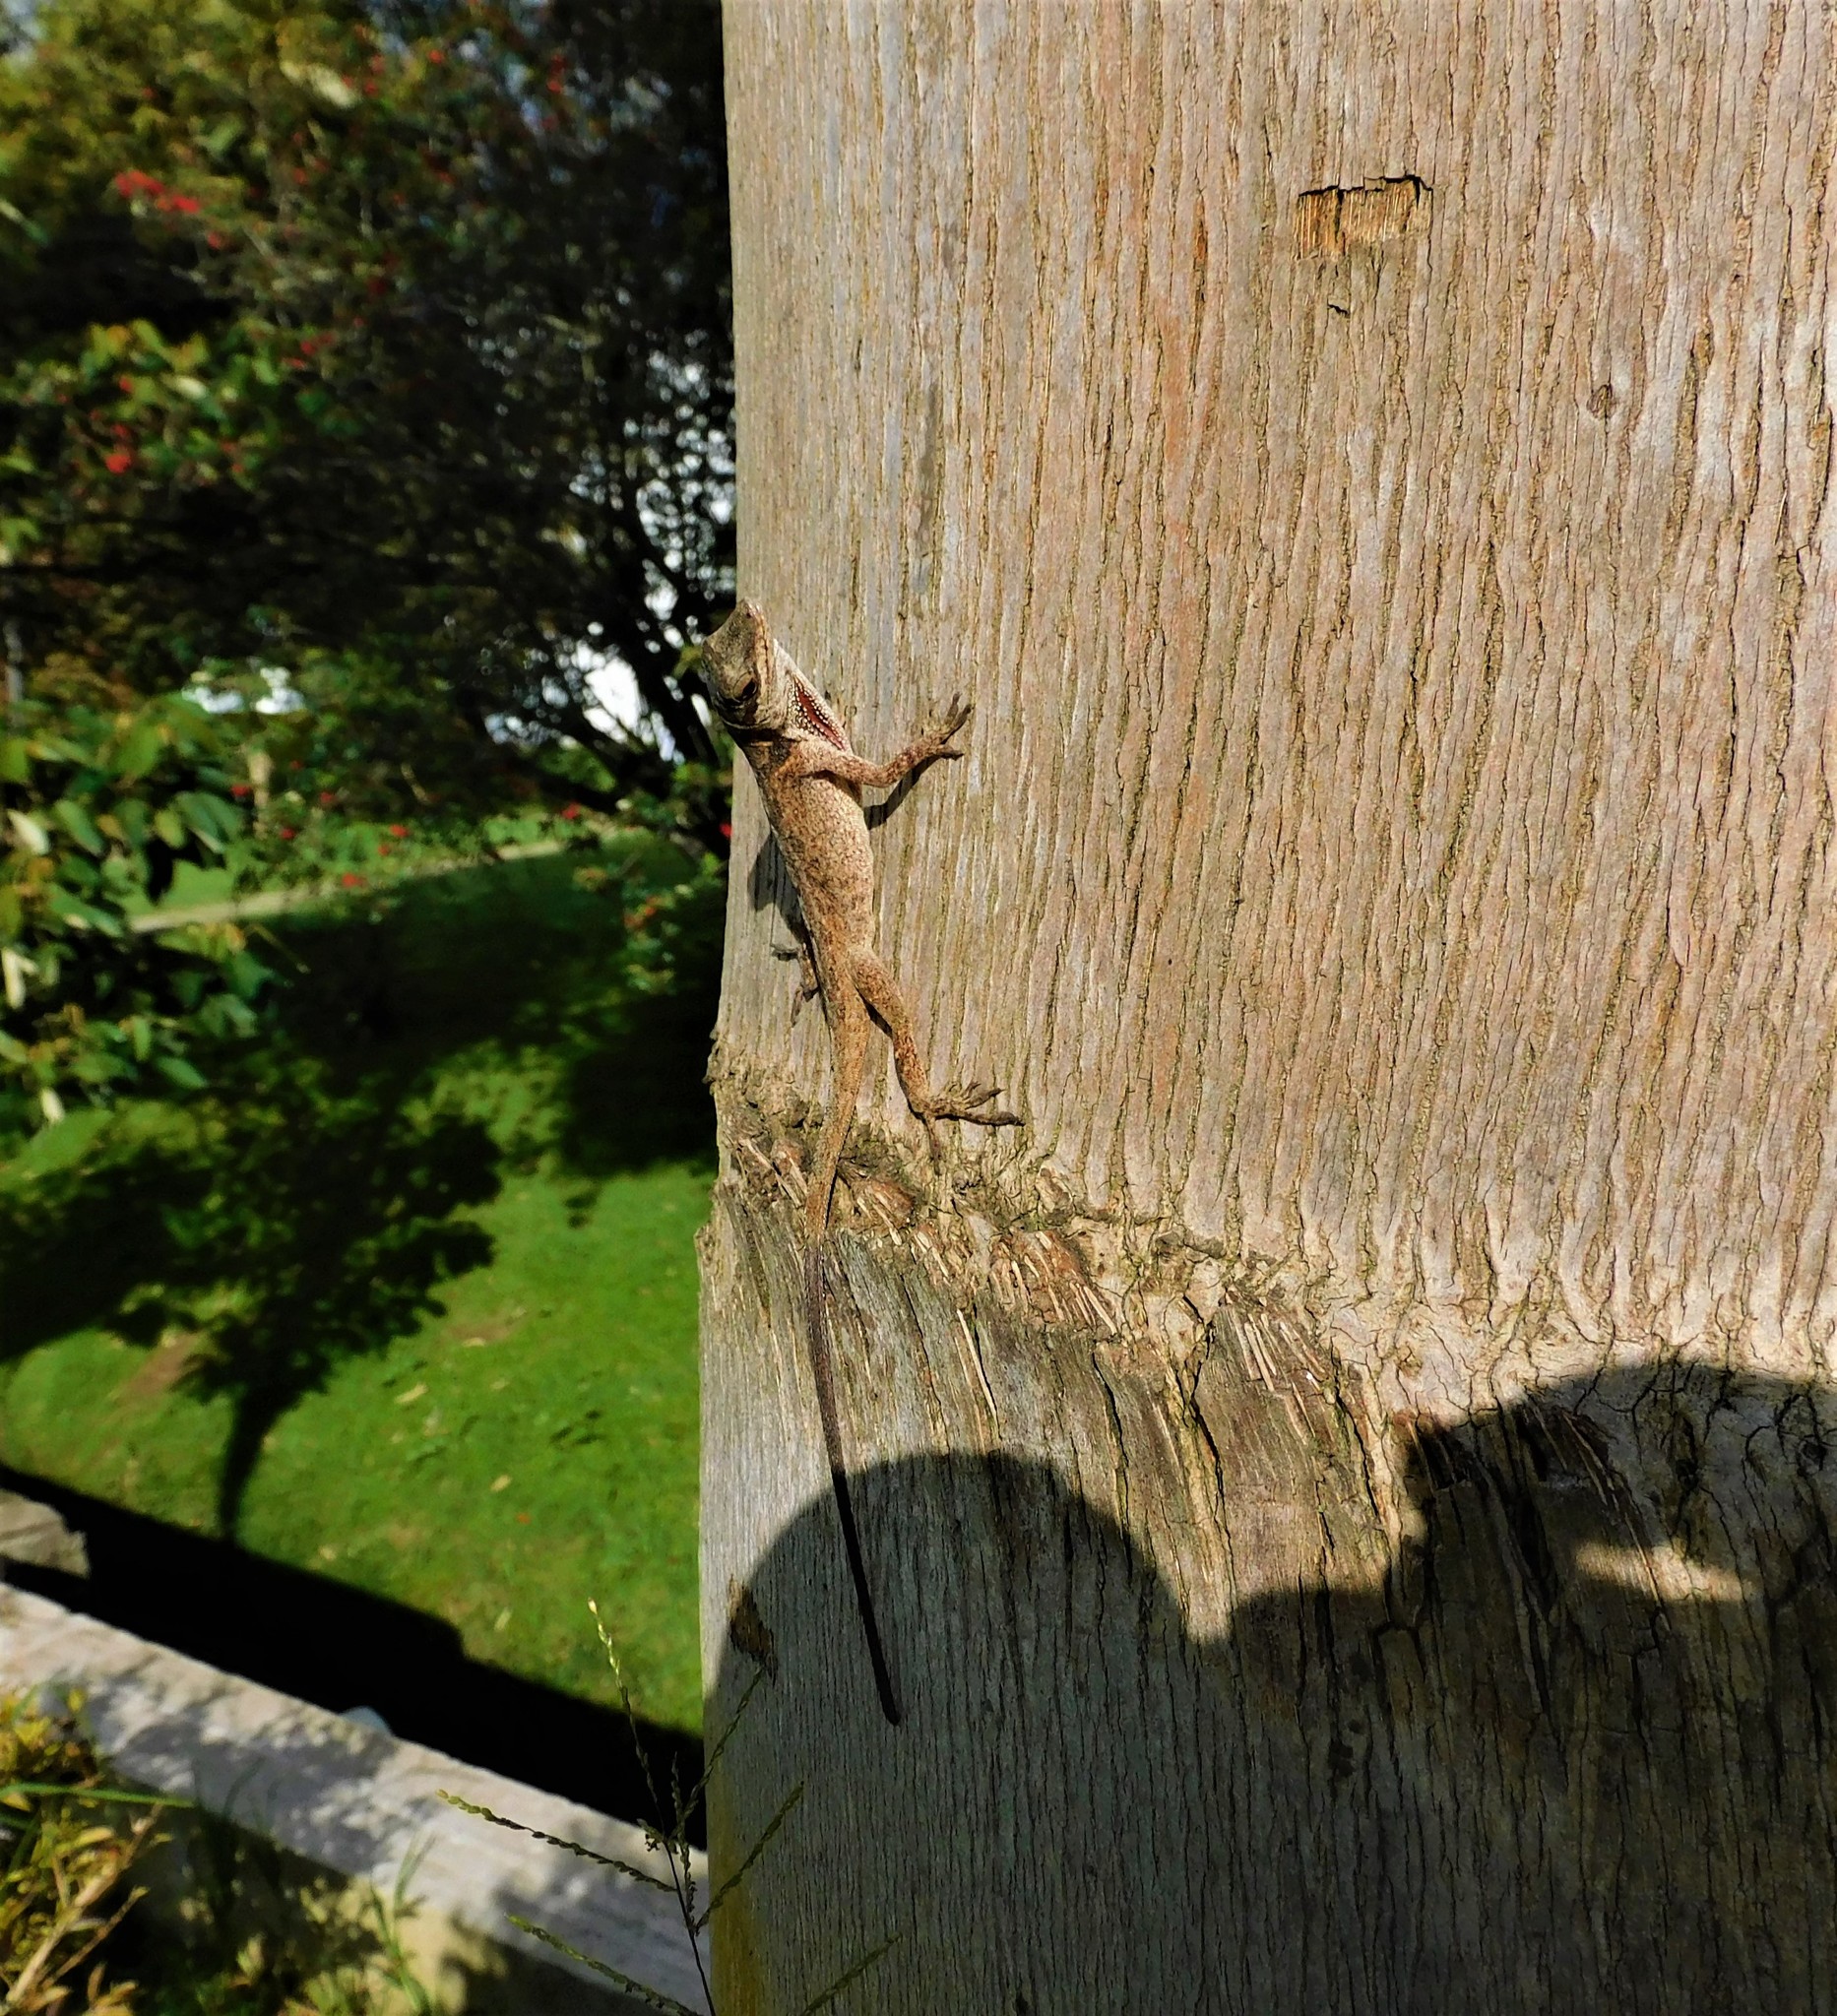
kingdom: Animalia
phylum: Chordata
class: Squamata
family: Dactyloidae
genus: Anolis
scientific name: Anolis mariarum
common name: Blemished anole
